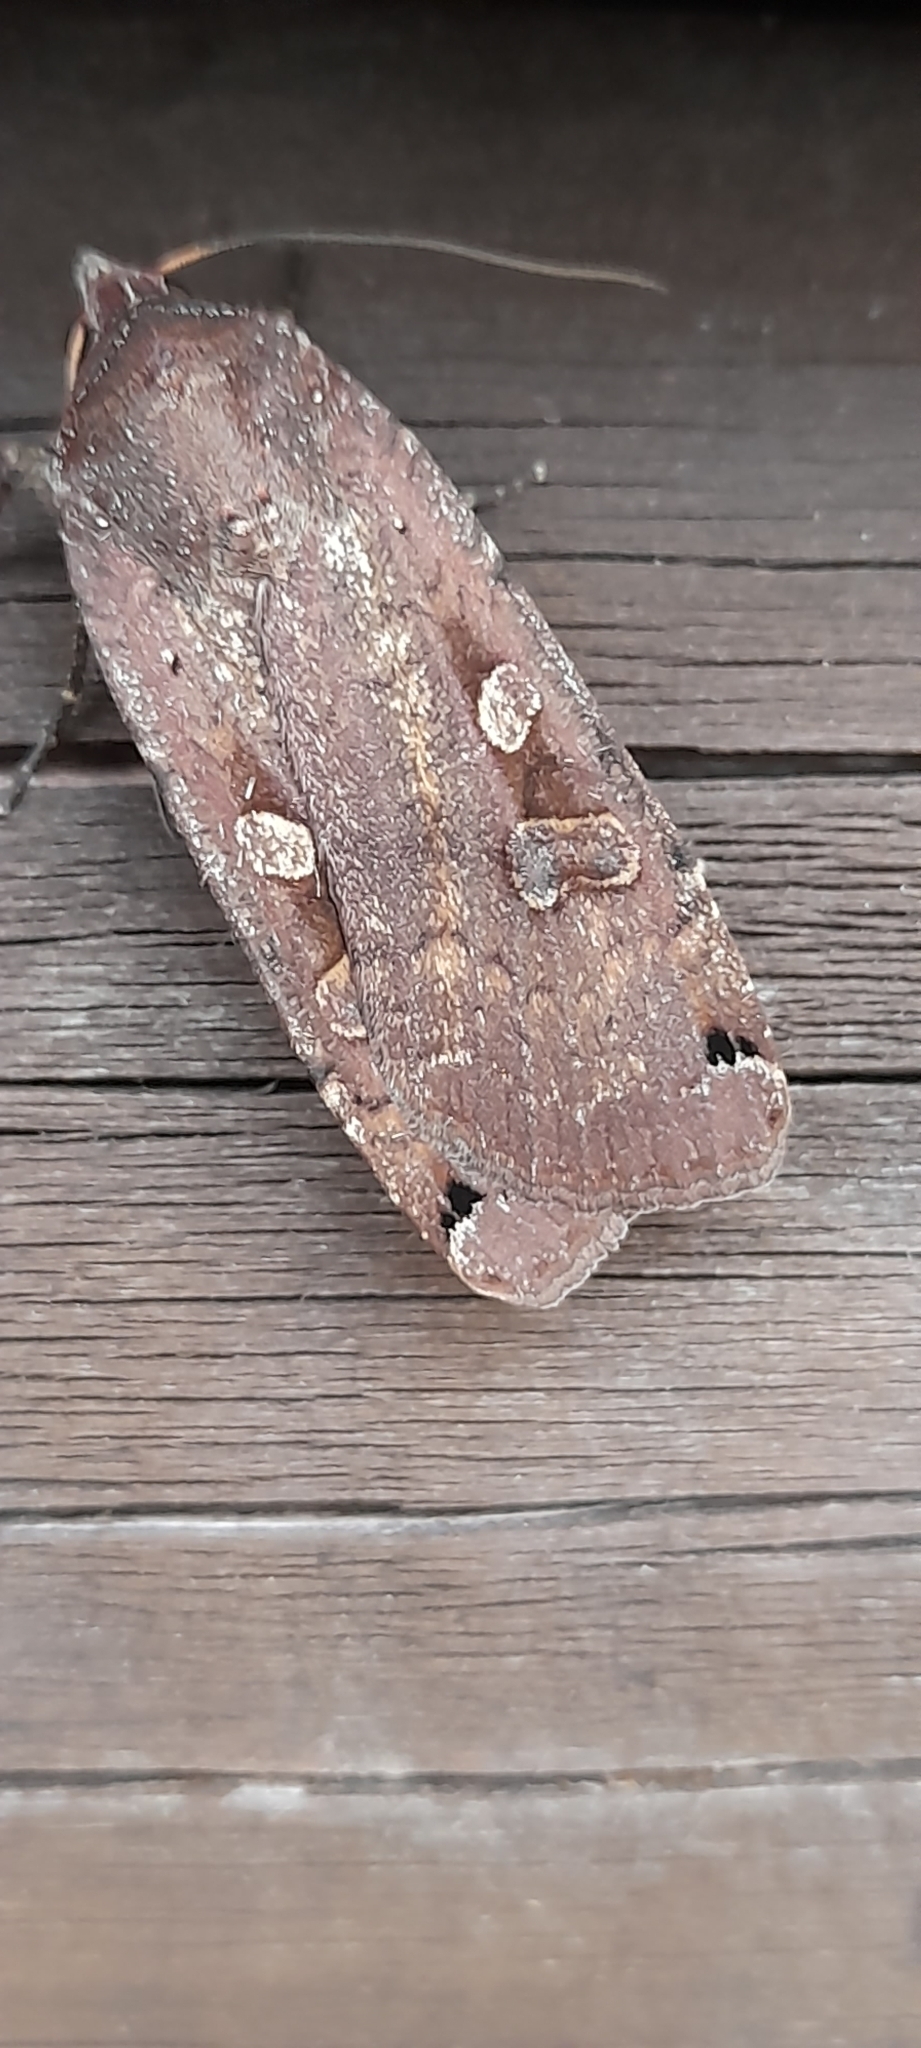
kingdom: Animalia
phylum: Arthropoda
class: Insecta
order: Lepidoptera
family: Noctuidae
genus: Noctua
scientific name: Noctua pronuba
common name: Large yellow underwing
